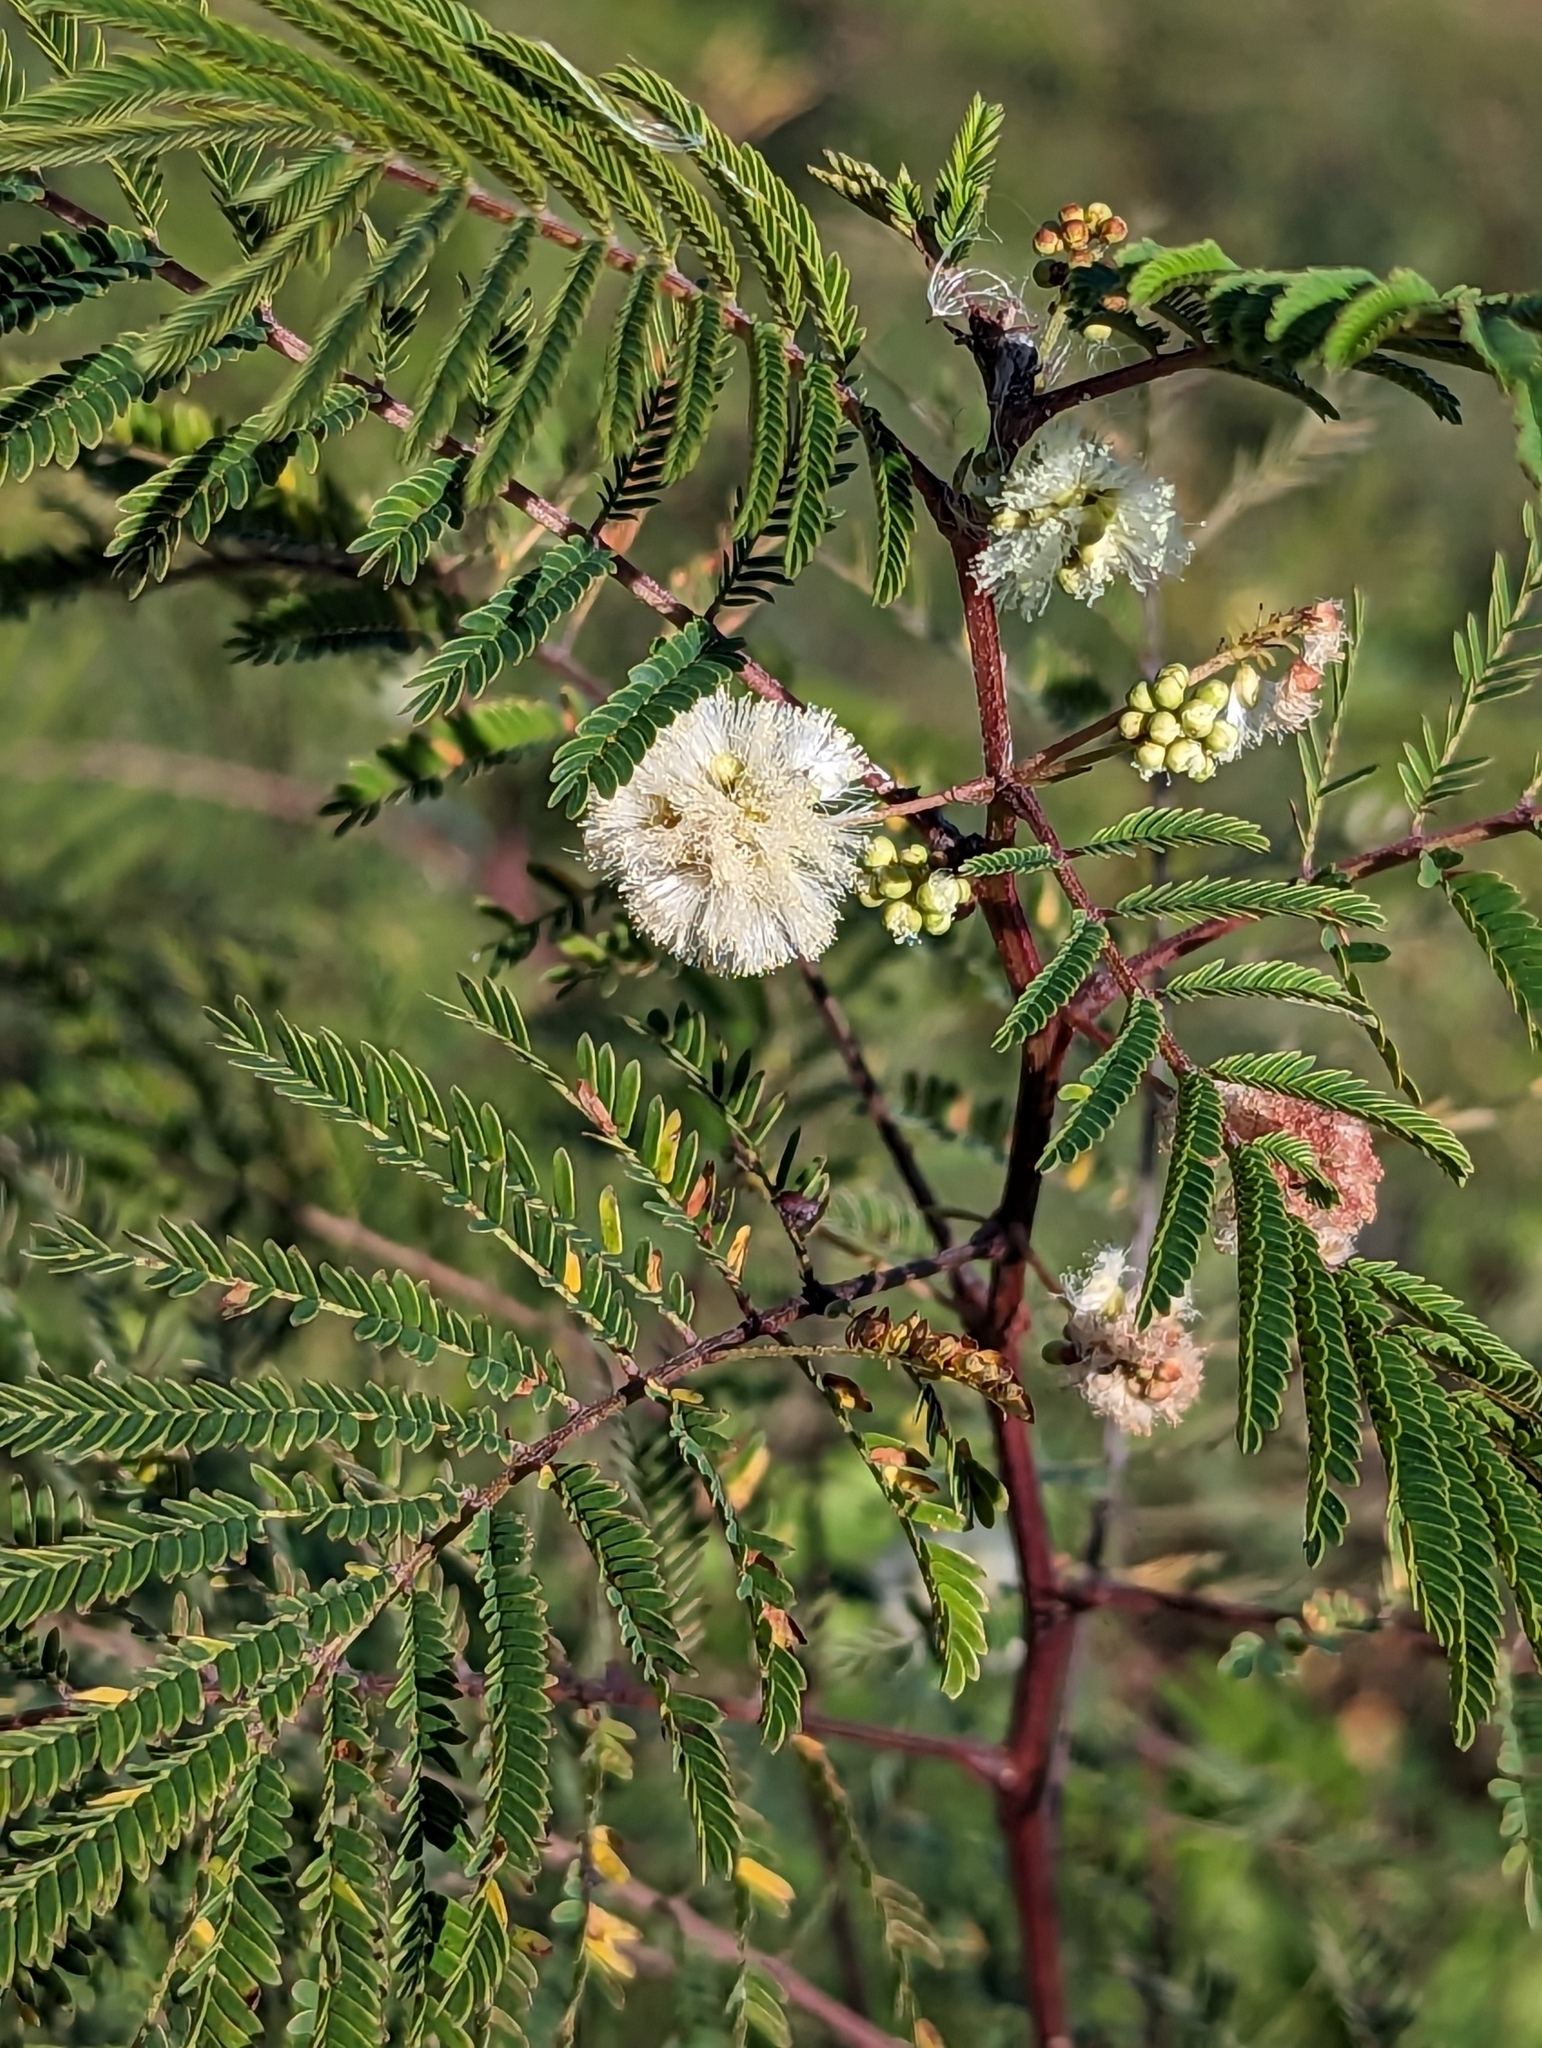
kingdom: Plantae
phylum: Tracheophyta
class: Magnoliopsida
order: Fabales
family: Fabaceae
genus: Acaciella
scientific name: Acaciella angustissima
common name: Prairie acacia
